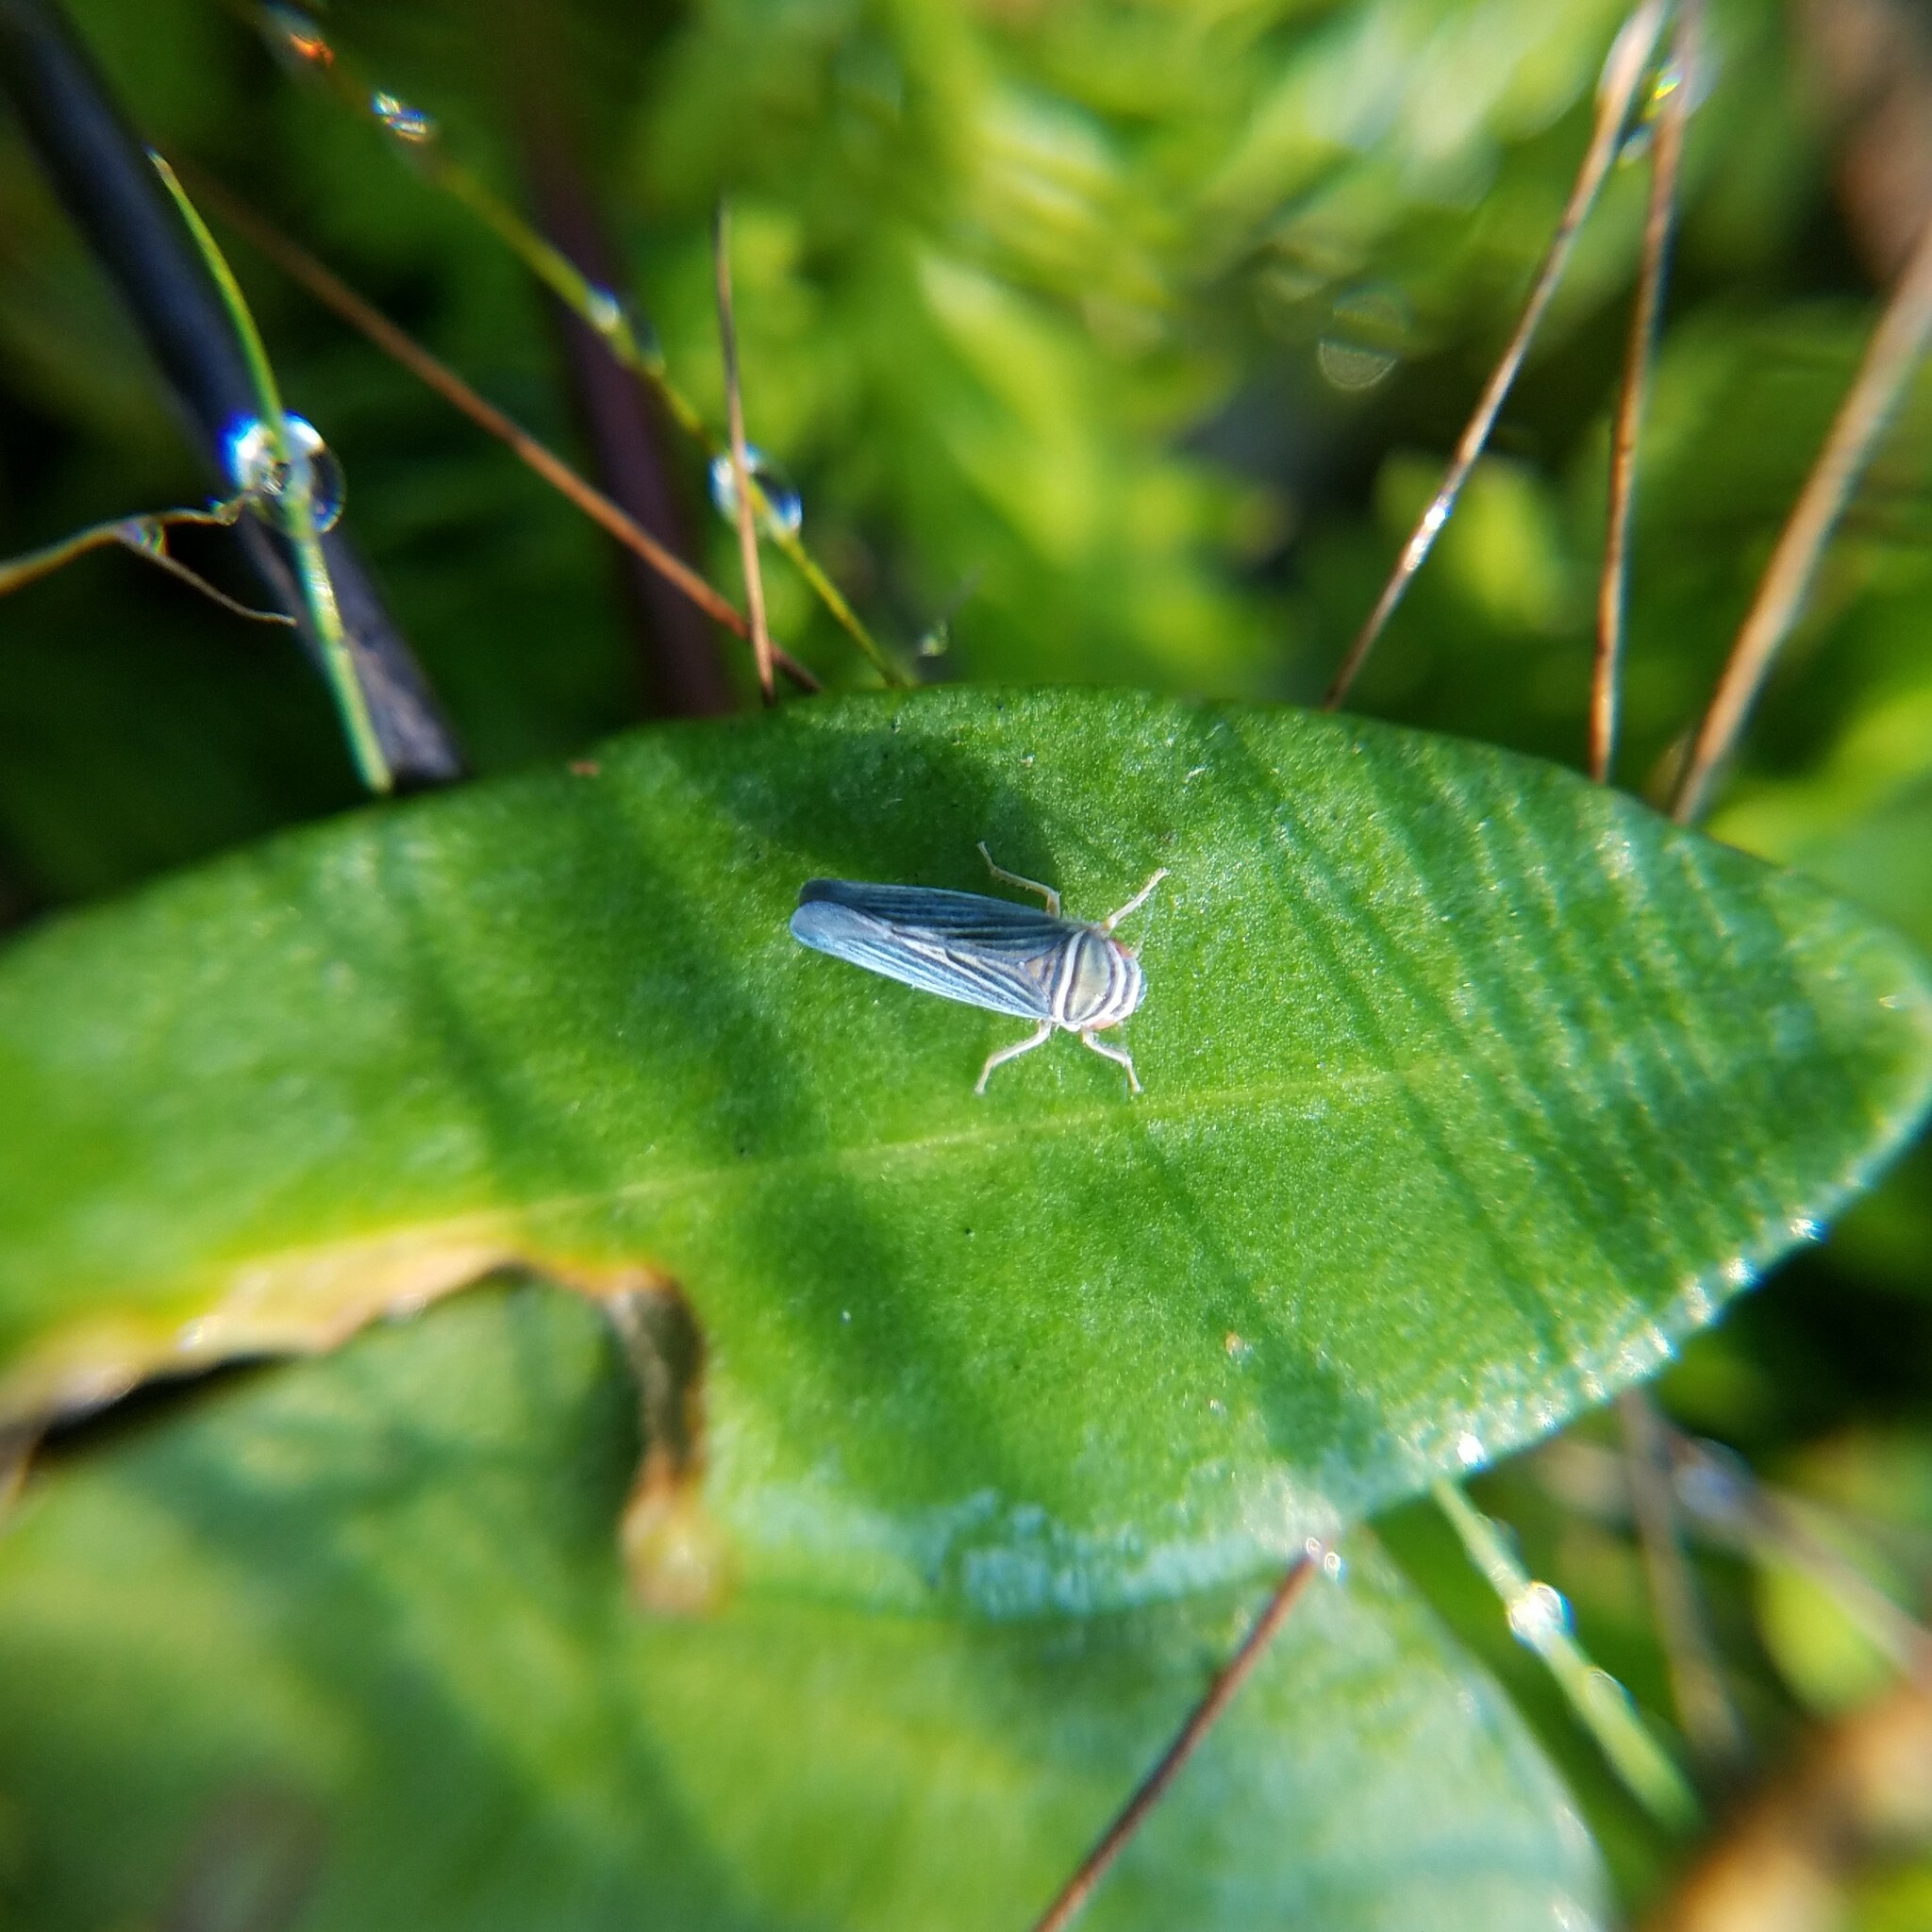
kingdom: Animalia
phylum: Arthropoda
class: Insecta
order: Hemiptera
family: Cicadellidae
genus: Tylozygus
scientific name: Tylozygus bifidus
